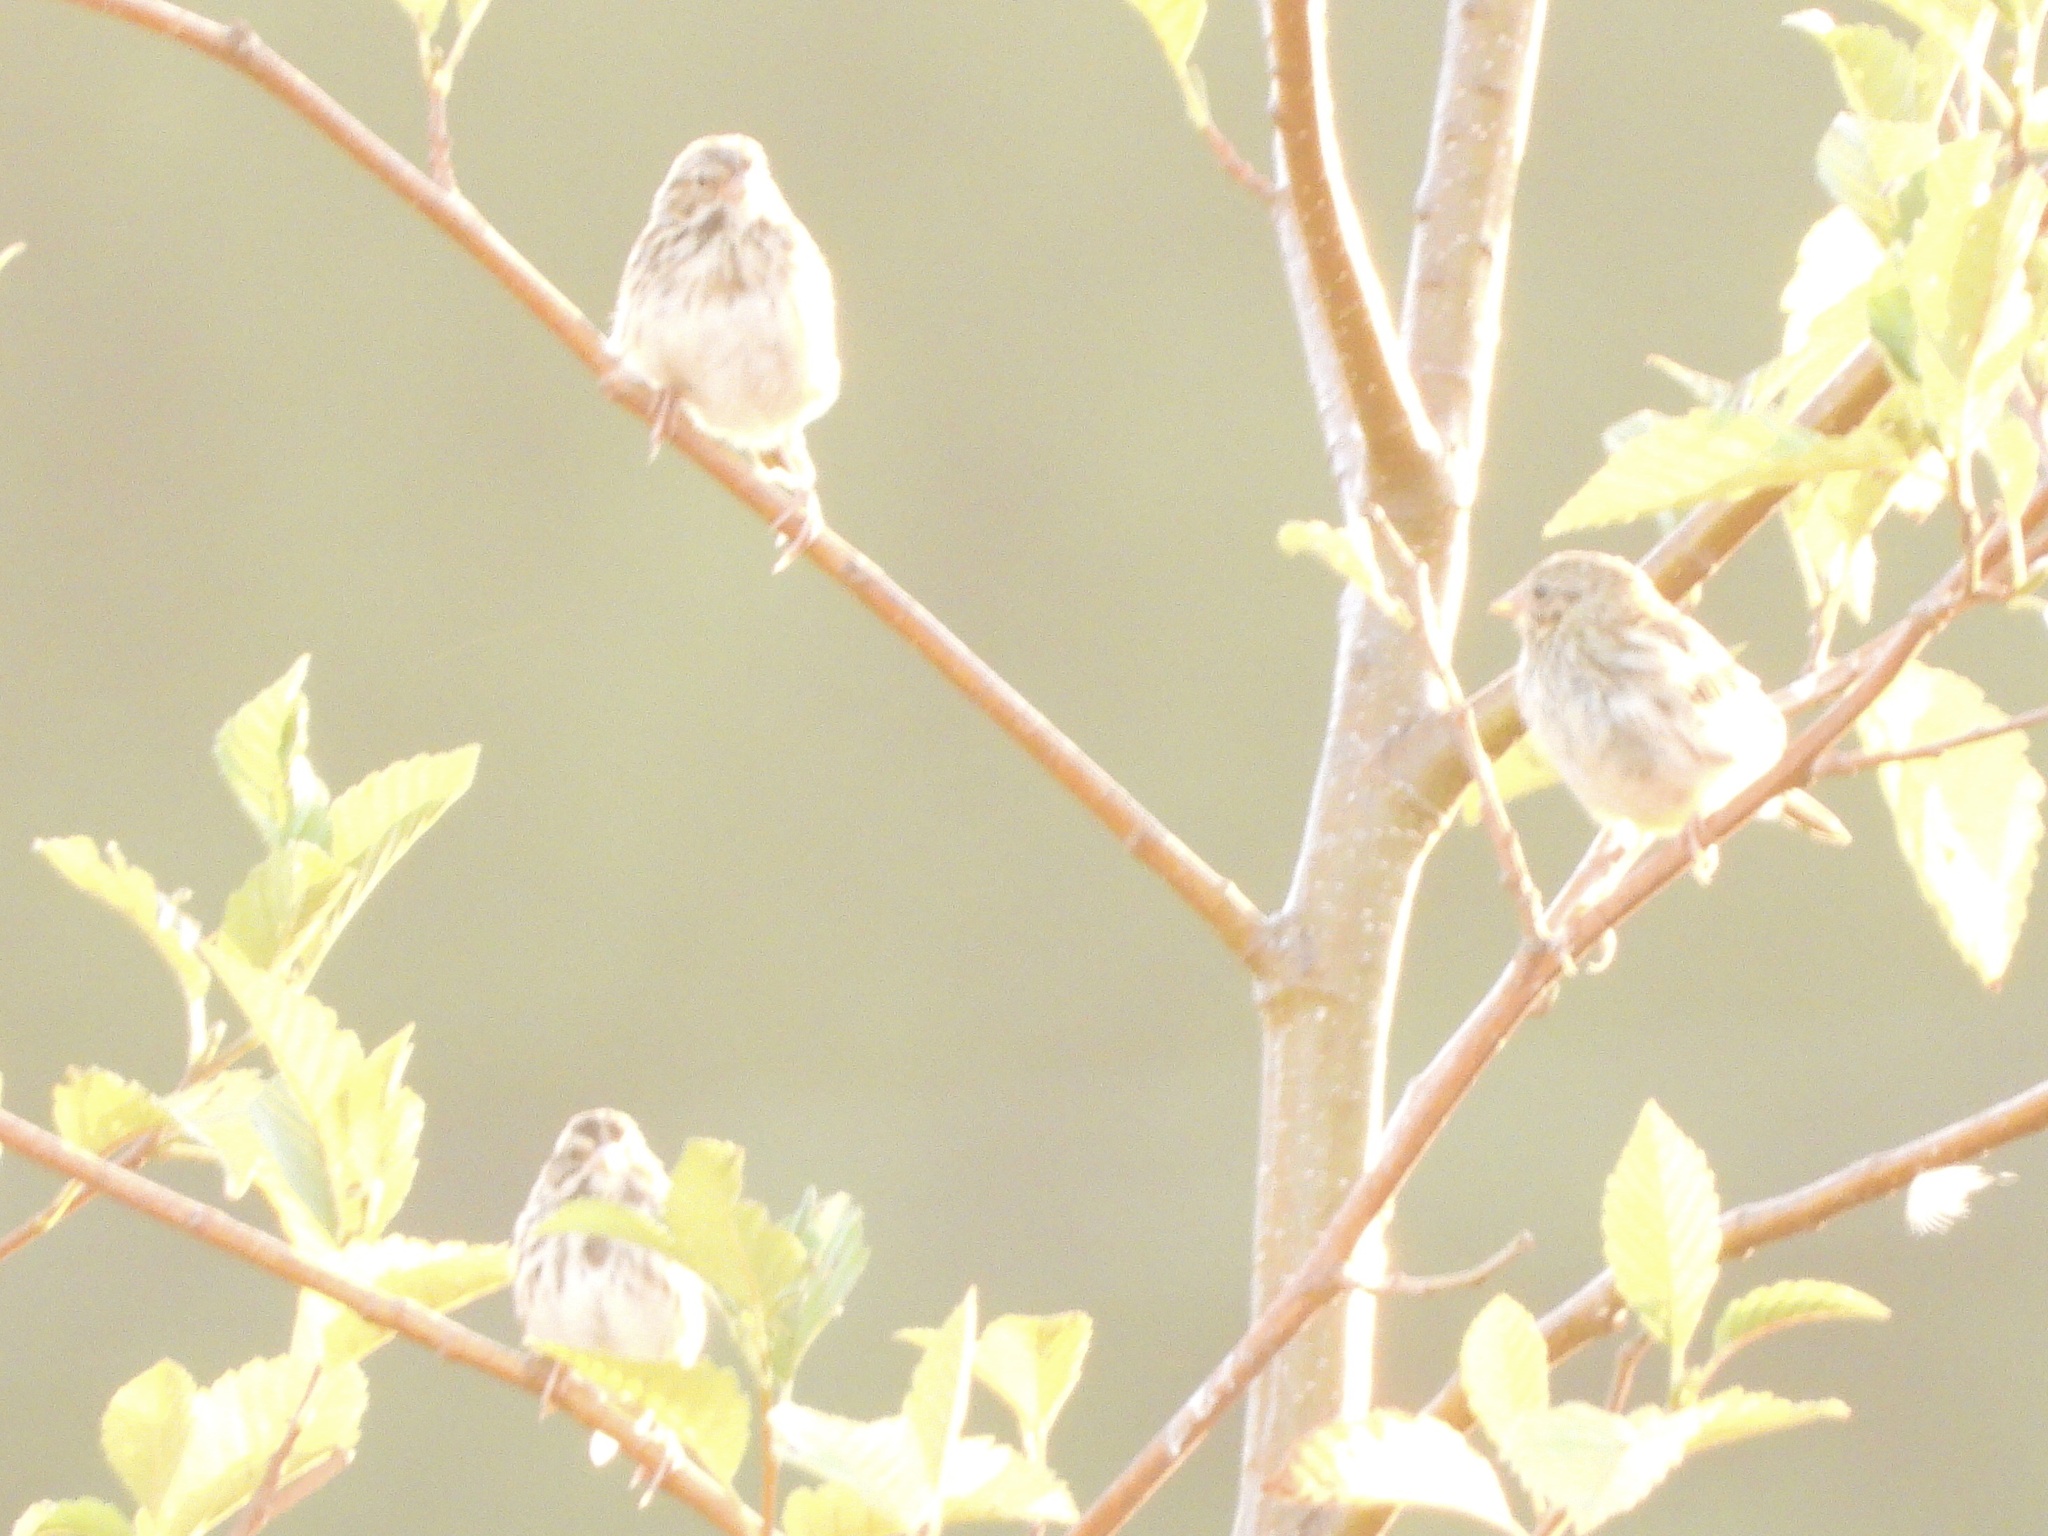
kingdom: Animalia
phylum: Chordata
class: Aves
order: Passeriformes
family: Passerellidae
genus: Passerculus
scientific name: Passerculus sandwichensis
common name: Savannah sparrow
